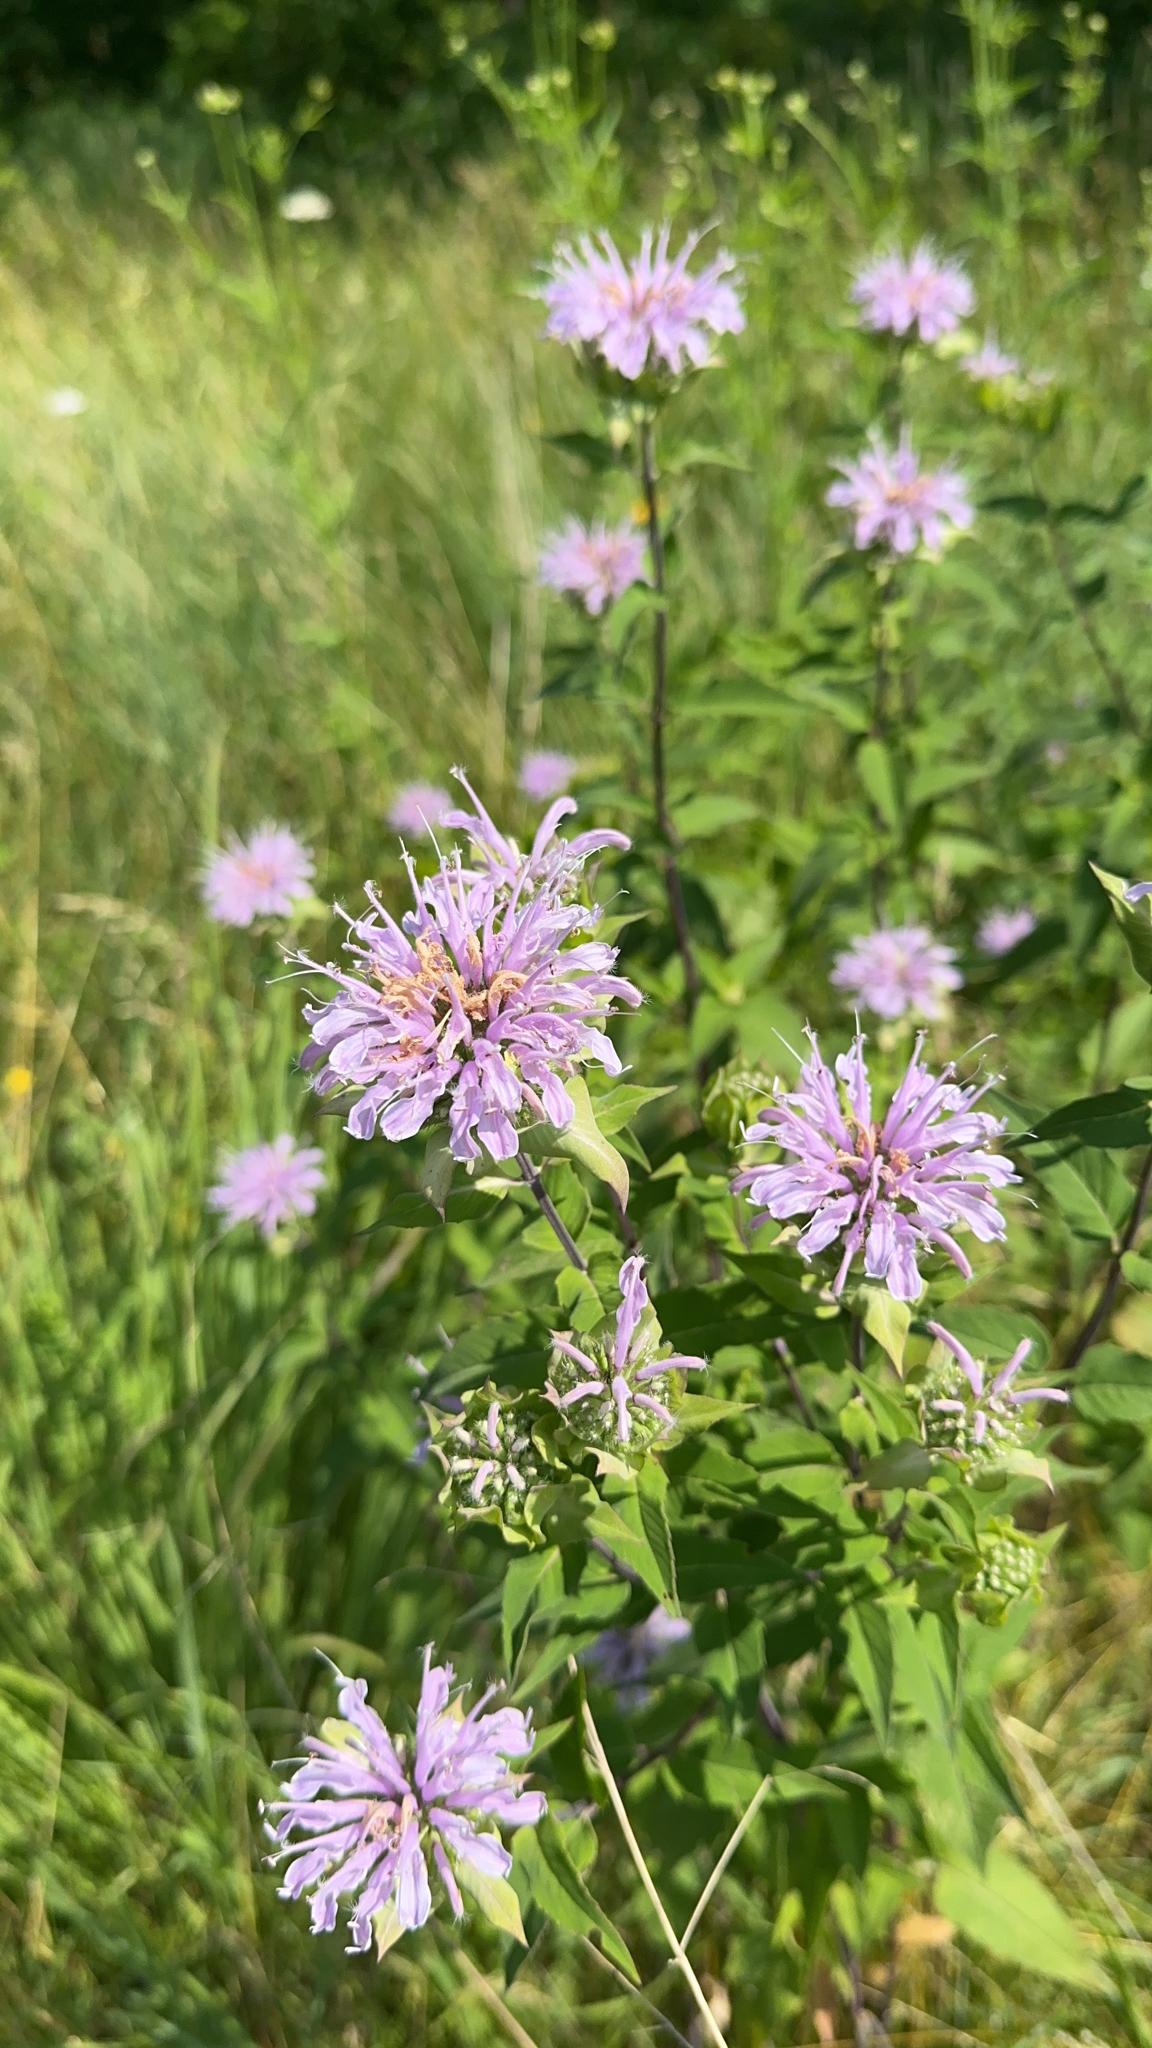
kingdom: Plantae
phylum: Tracheophyta
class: Magnoliopsida
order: Lamiales
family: Lamiaceae
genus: Monarda
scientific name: Monarda fistulosa
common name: Purple beebalm
